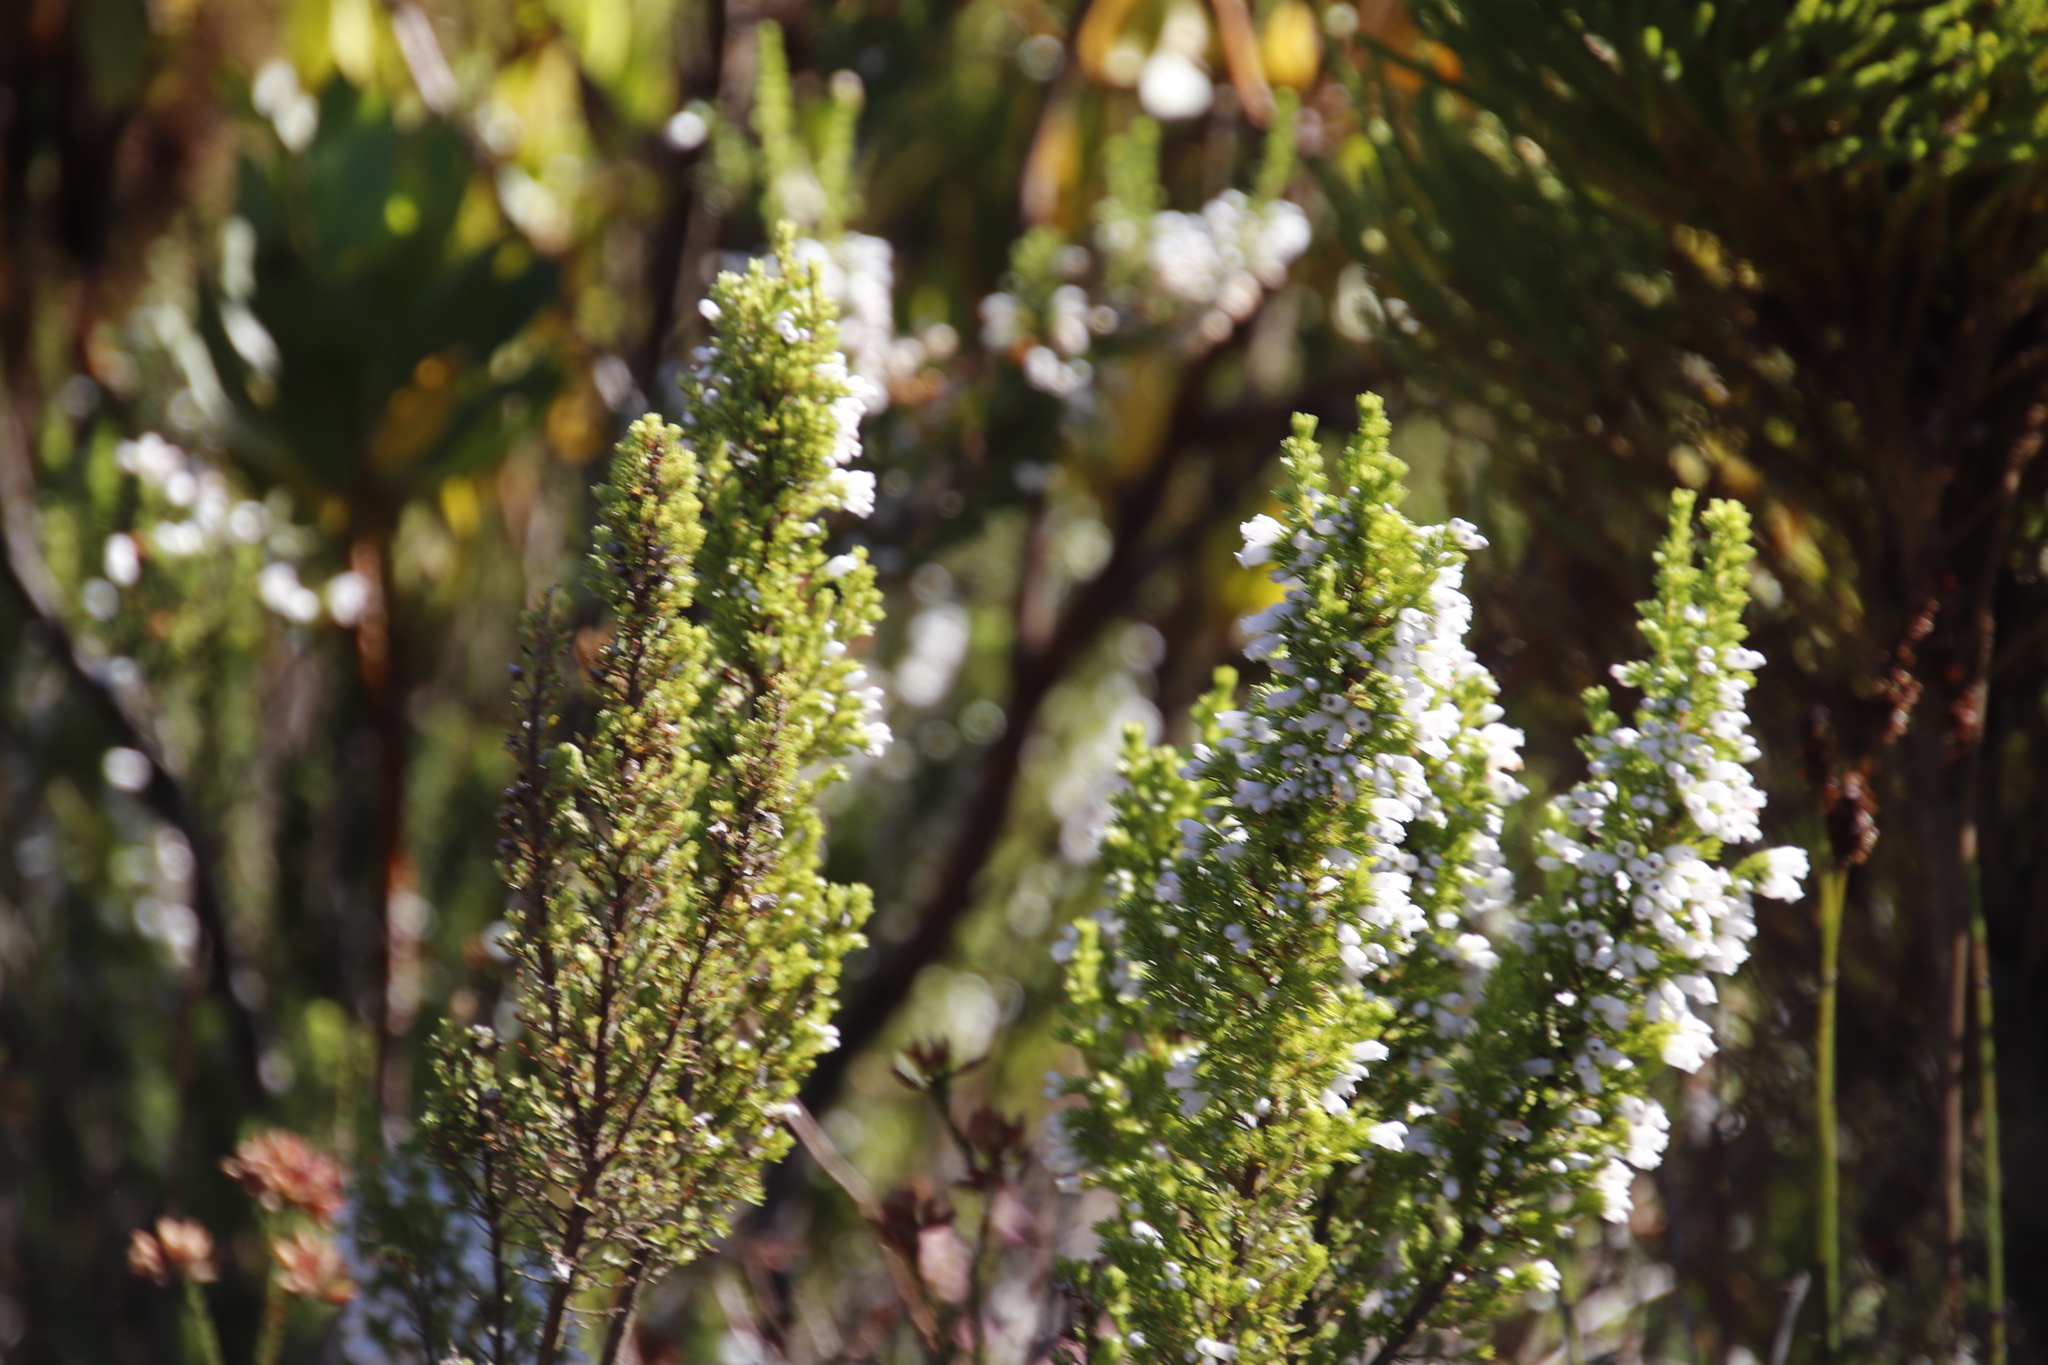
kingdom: Plantae
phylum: Tracheophyta
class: Magnoliopsida
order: Ericales
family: Ericaceae
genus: Erica
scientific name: Erica sitiens
